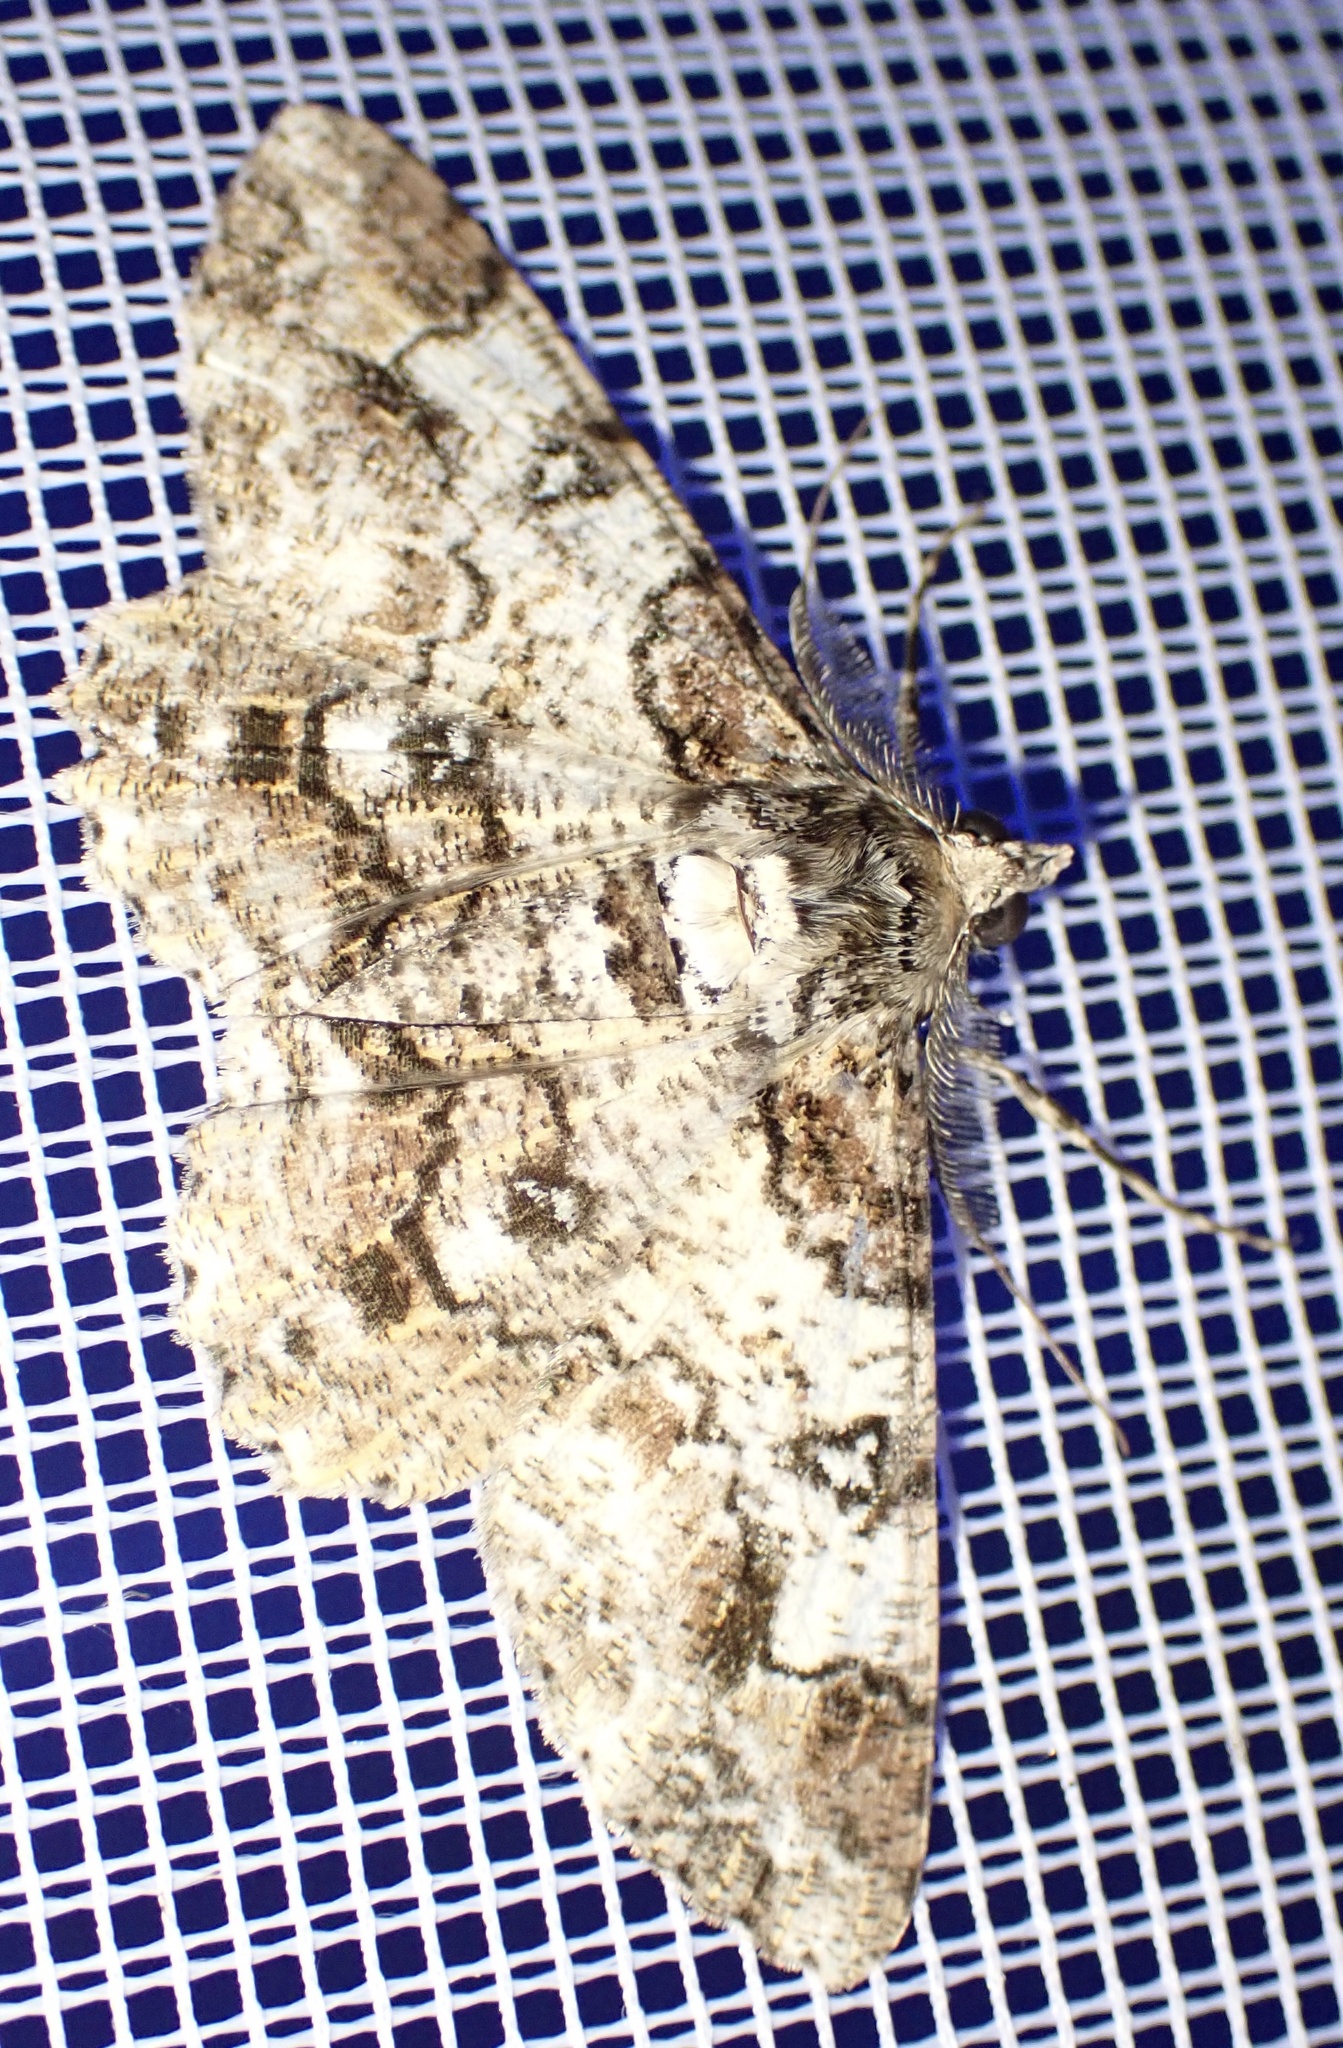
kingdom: Animalia
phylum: Arthropoda
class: Insecta
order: Lepidoptera
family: Geometridae
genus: Cleora
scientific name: Cleora illustraria
